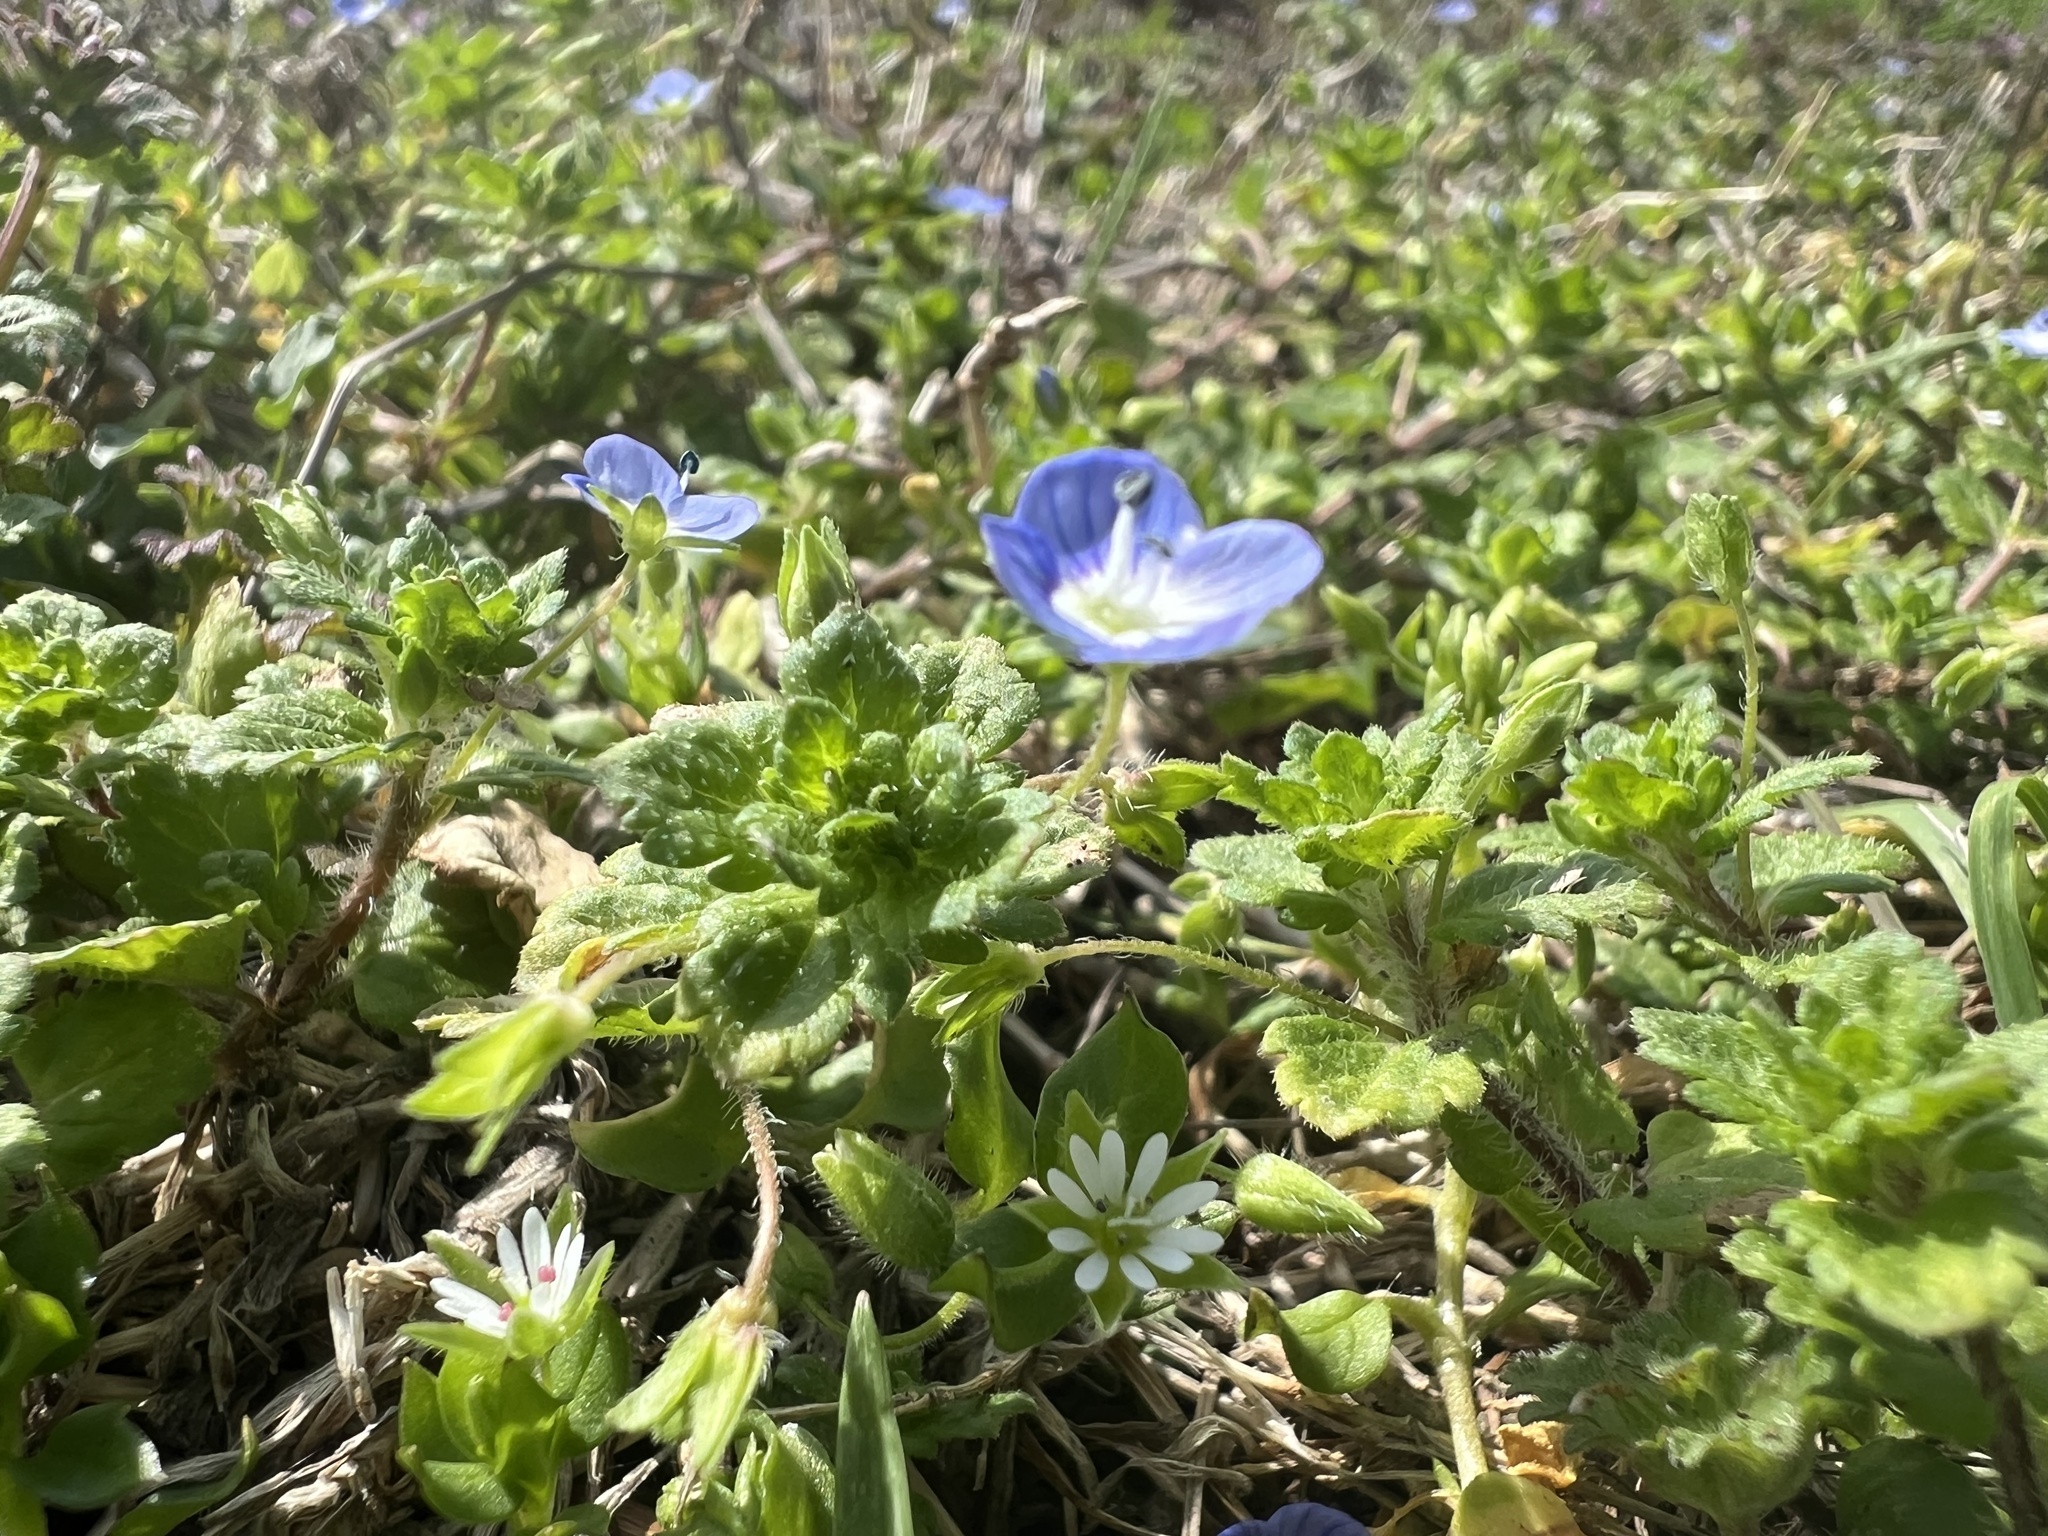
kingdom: Plantae
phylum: Tracheophyta
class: Magnoliopsida
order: Lamiales
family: Plantaginaceae
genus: Veronica
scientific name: Veronica persica
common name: Common field-speedwell
